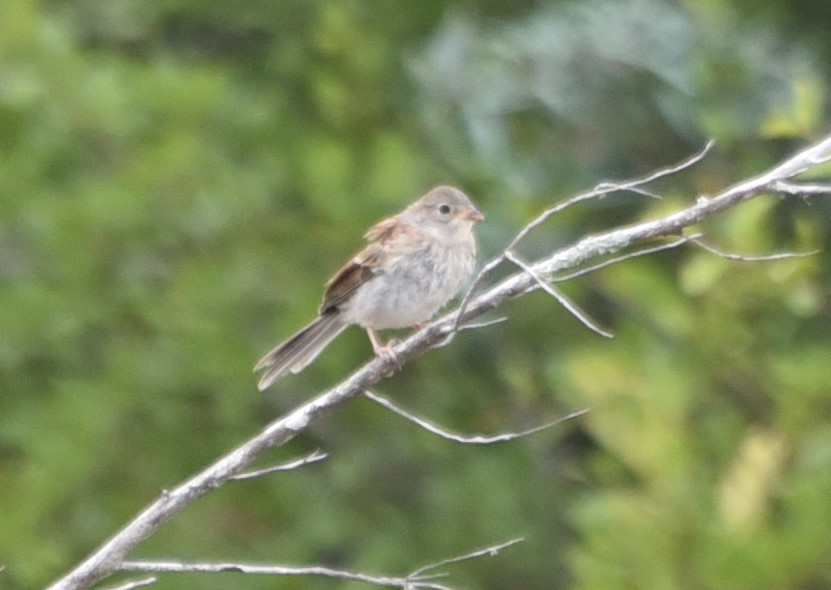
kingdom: Animalia
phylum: Chordata
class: Aves
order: Passeriformes
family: Passerellidae
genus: Spizella
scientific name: Spizella pusilla
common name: Field sparrow
